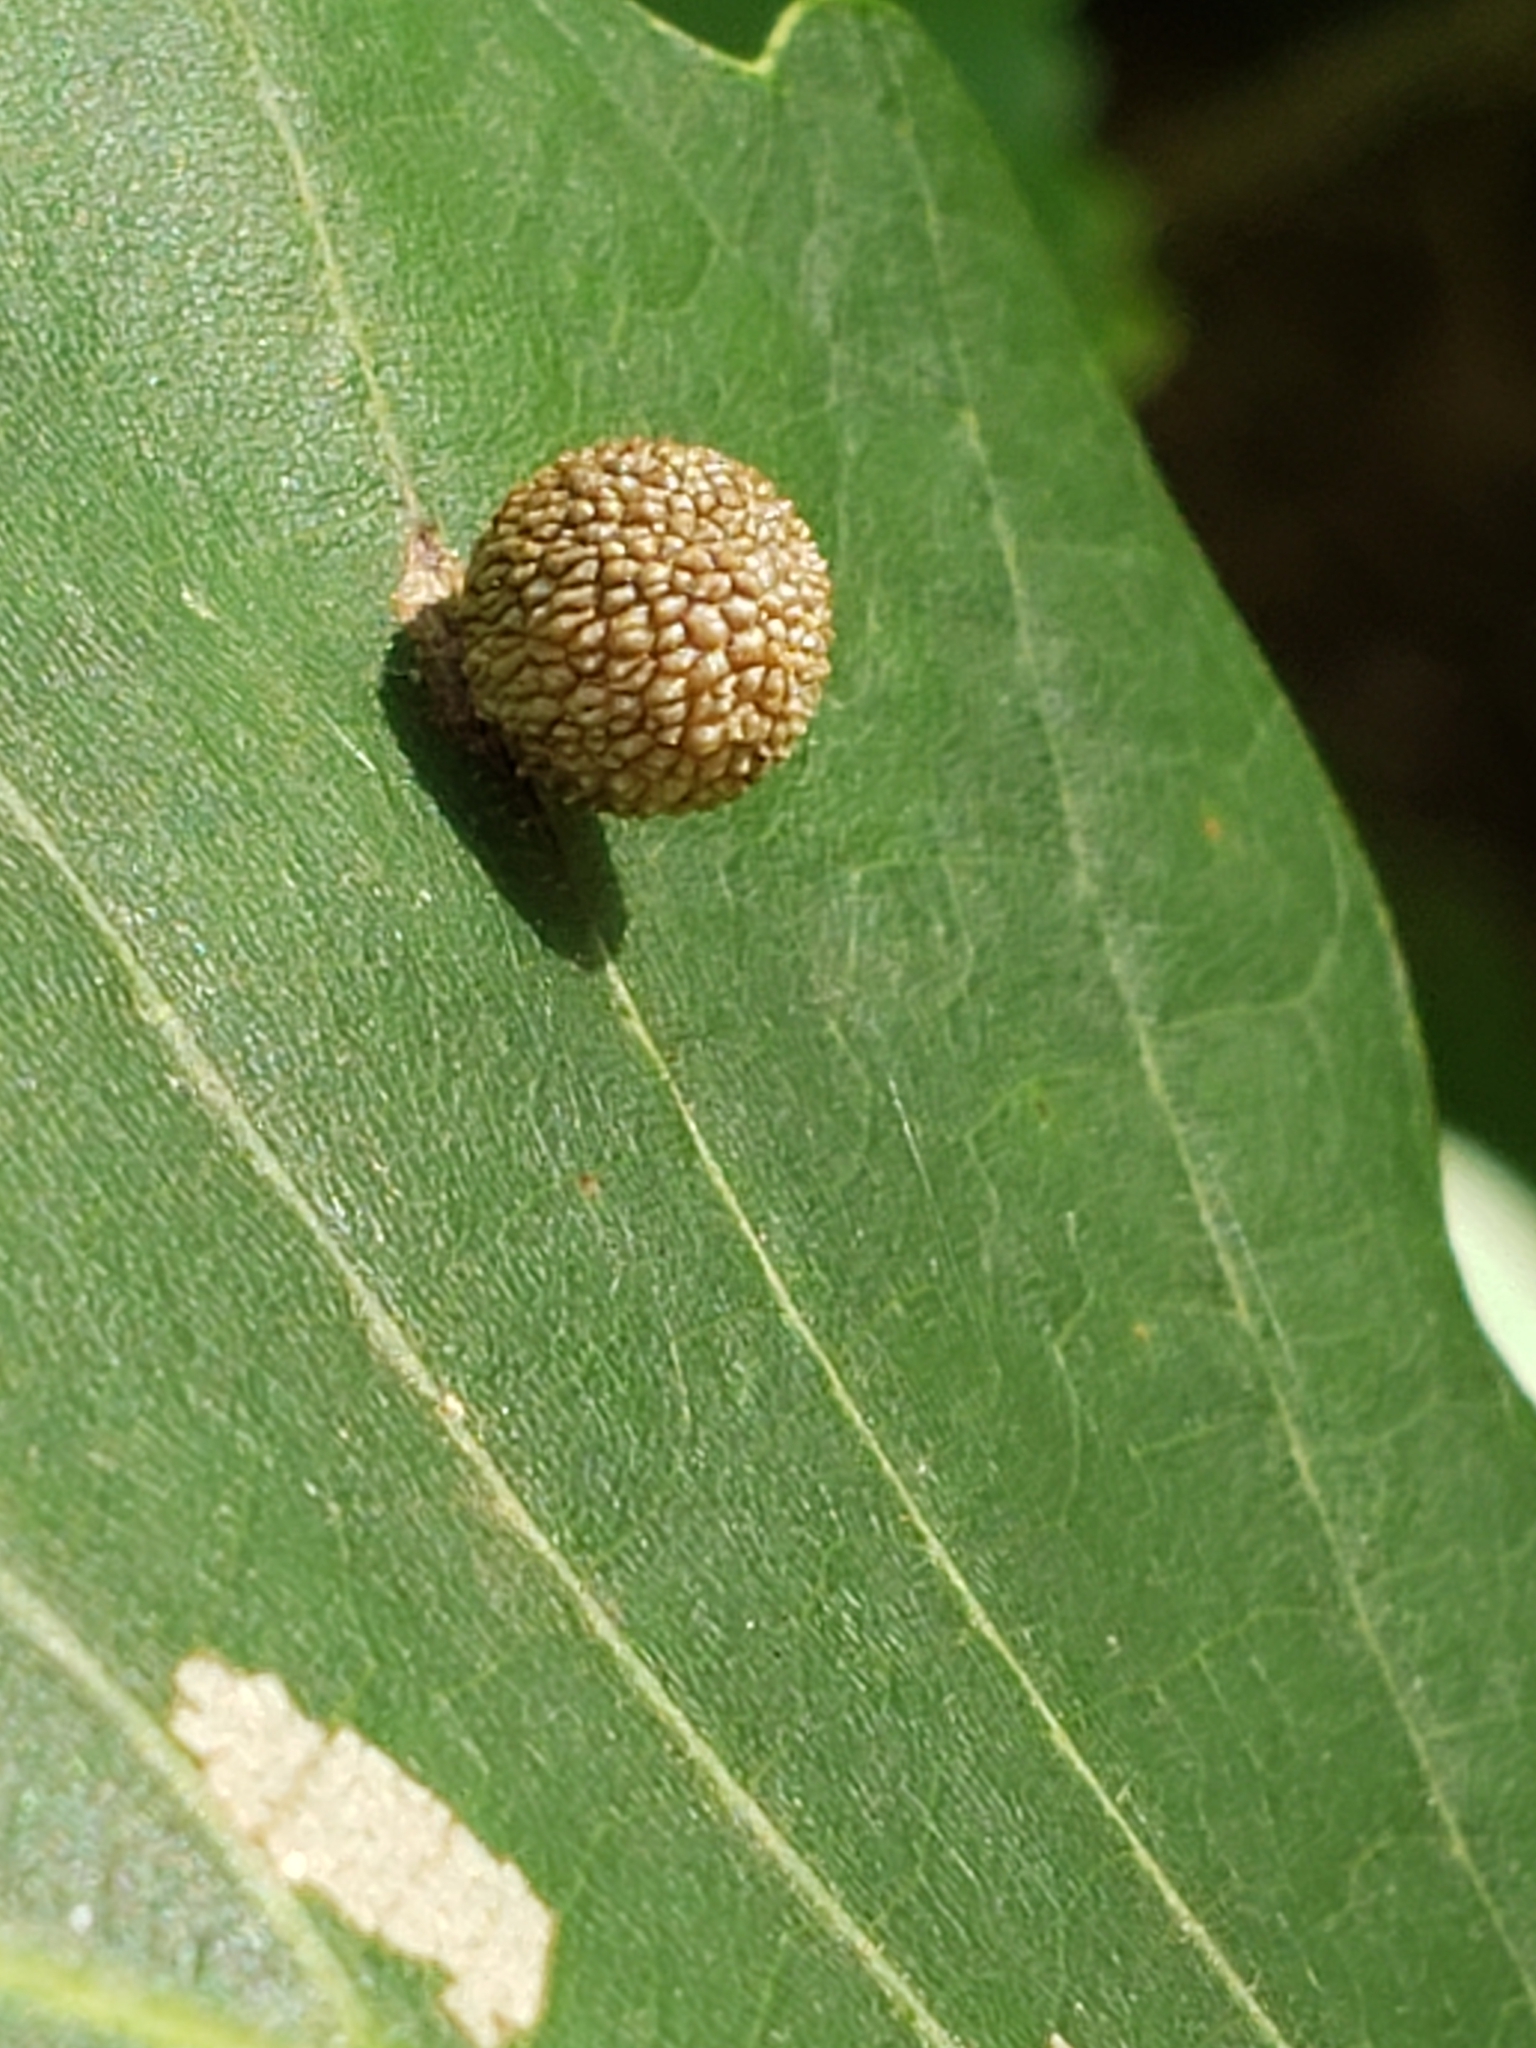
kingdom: Animalia
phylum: Arthropoda
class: Insecta
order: Hymenoptera
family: Cynipidae
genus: Acraspis
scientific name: Acraspis quercushirta
